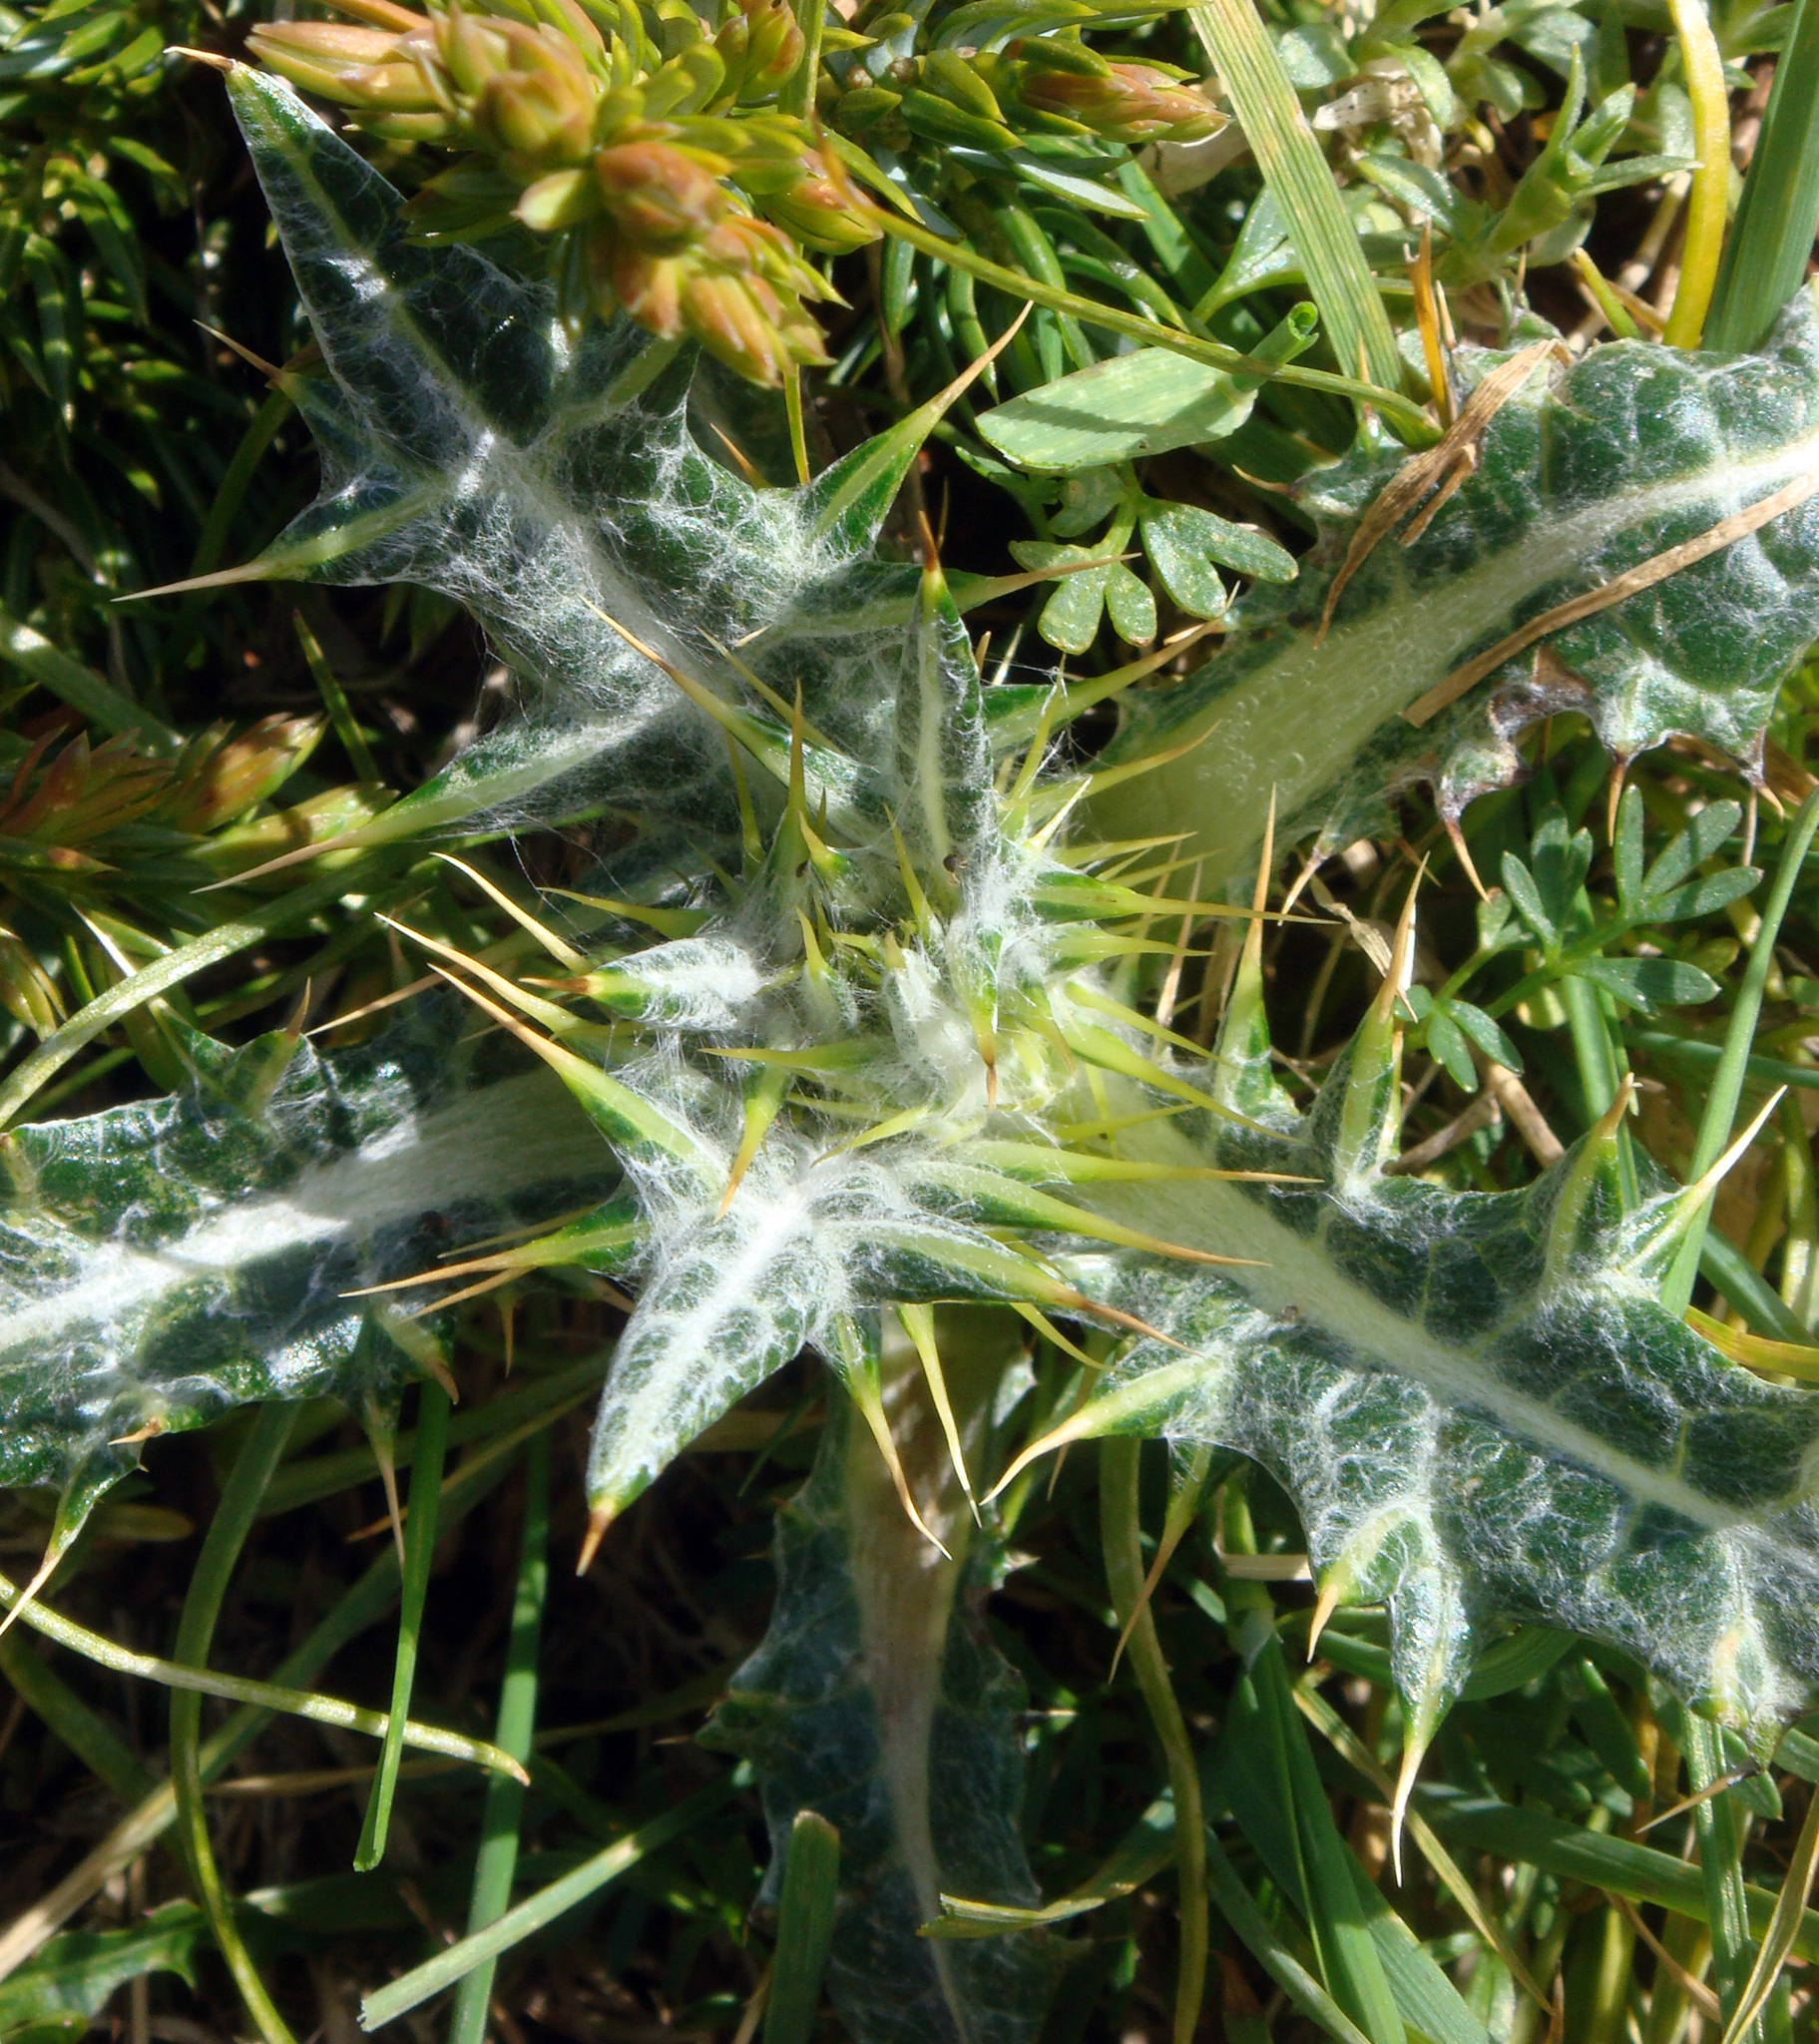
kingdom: Plantae
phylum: Tracheophyta
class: Magnoliopsida
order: Asterales
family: Asteraceae
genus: Lamyropsis
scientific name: Lamyropsis microcephala
